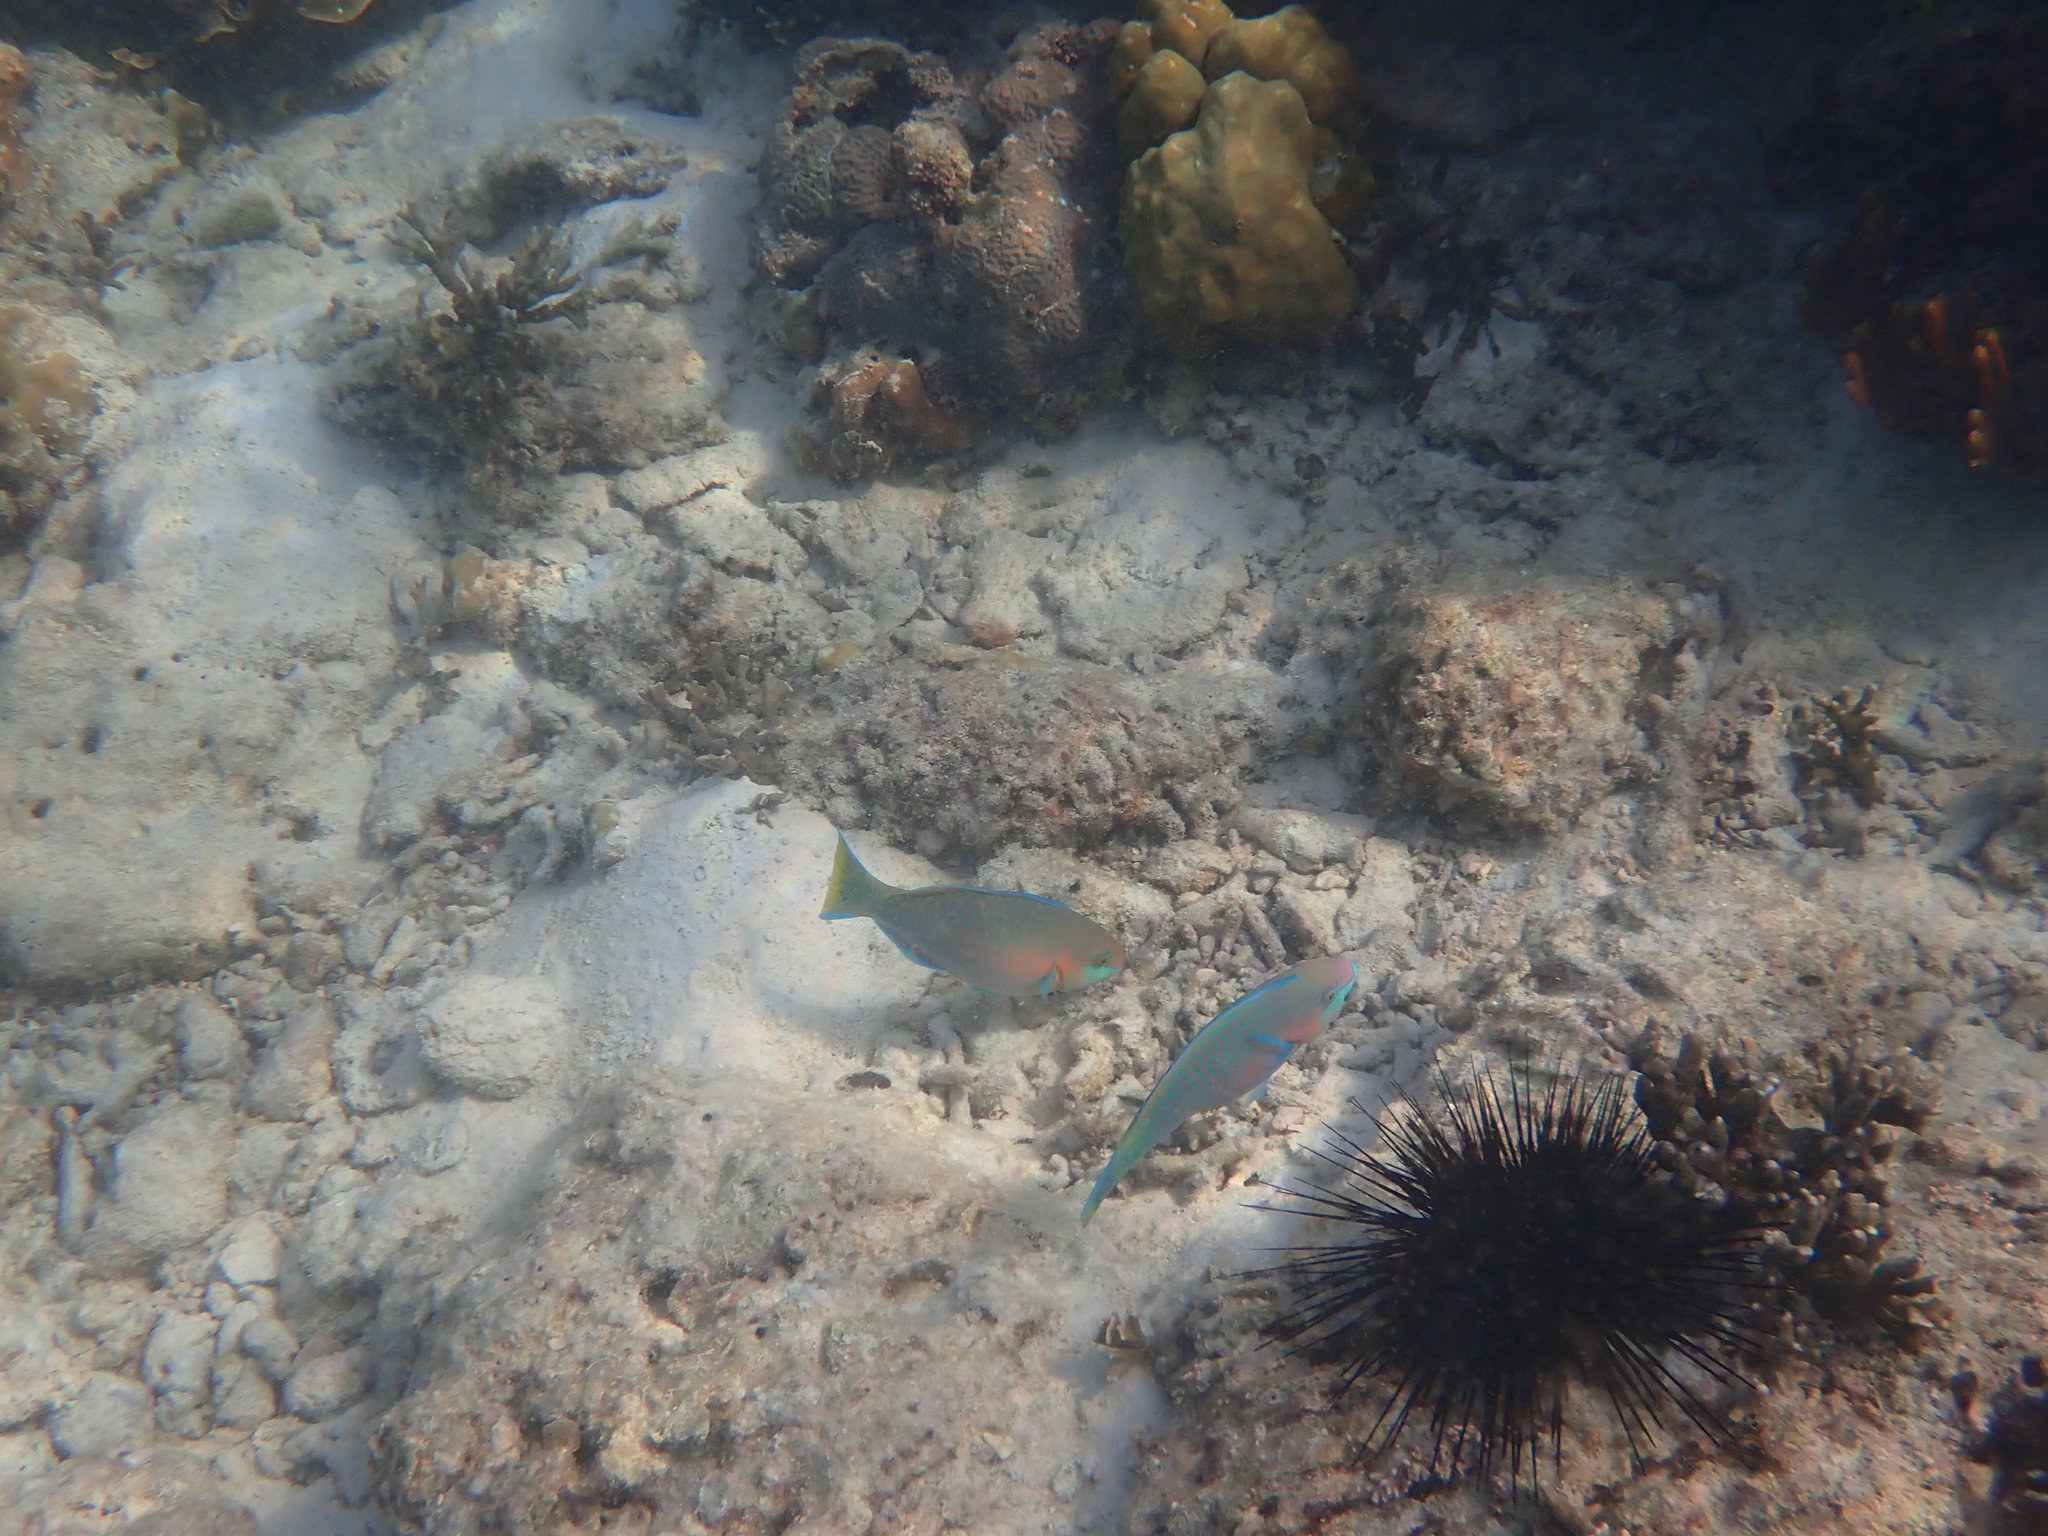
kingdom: Animalia
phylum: Chordata
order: Perciformes
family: Scaridae
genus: Scarus
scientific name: Scarus quoyi
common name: Quoy's parrotfish
